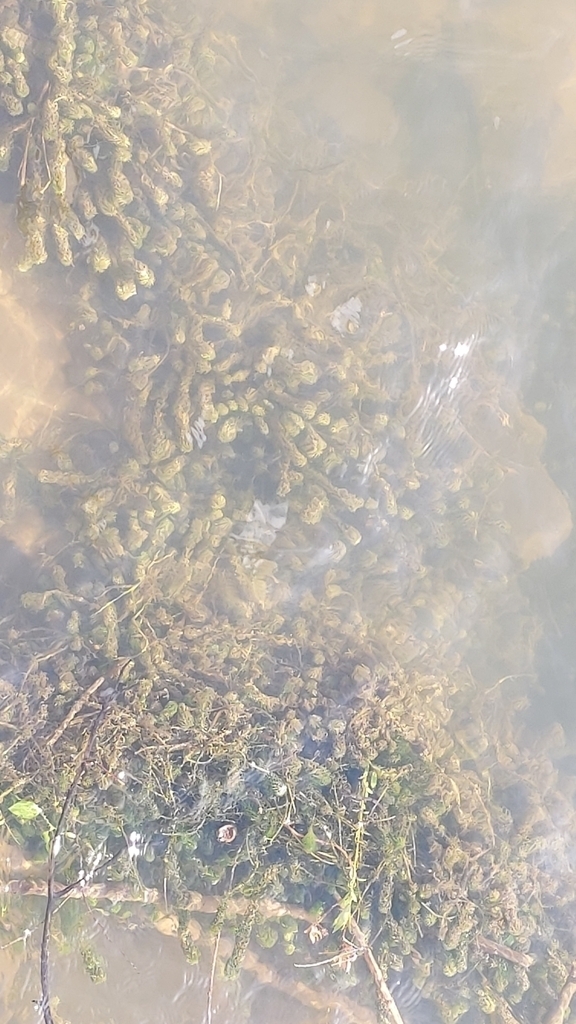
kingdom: Plantae
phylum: Tracheophyta
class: Magnoliopsida
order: Asterales
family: Asteraceae
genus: Erigeron
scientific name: Erigeron karvinskianus
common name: Mexican fleabane
